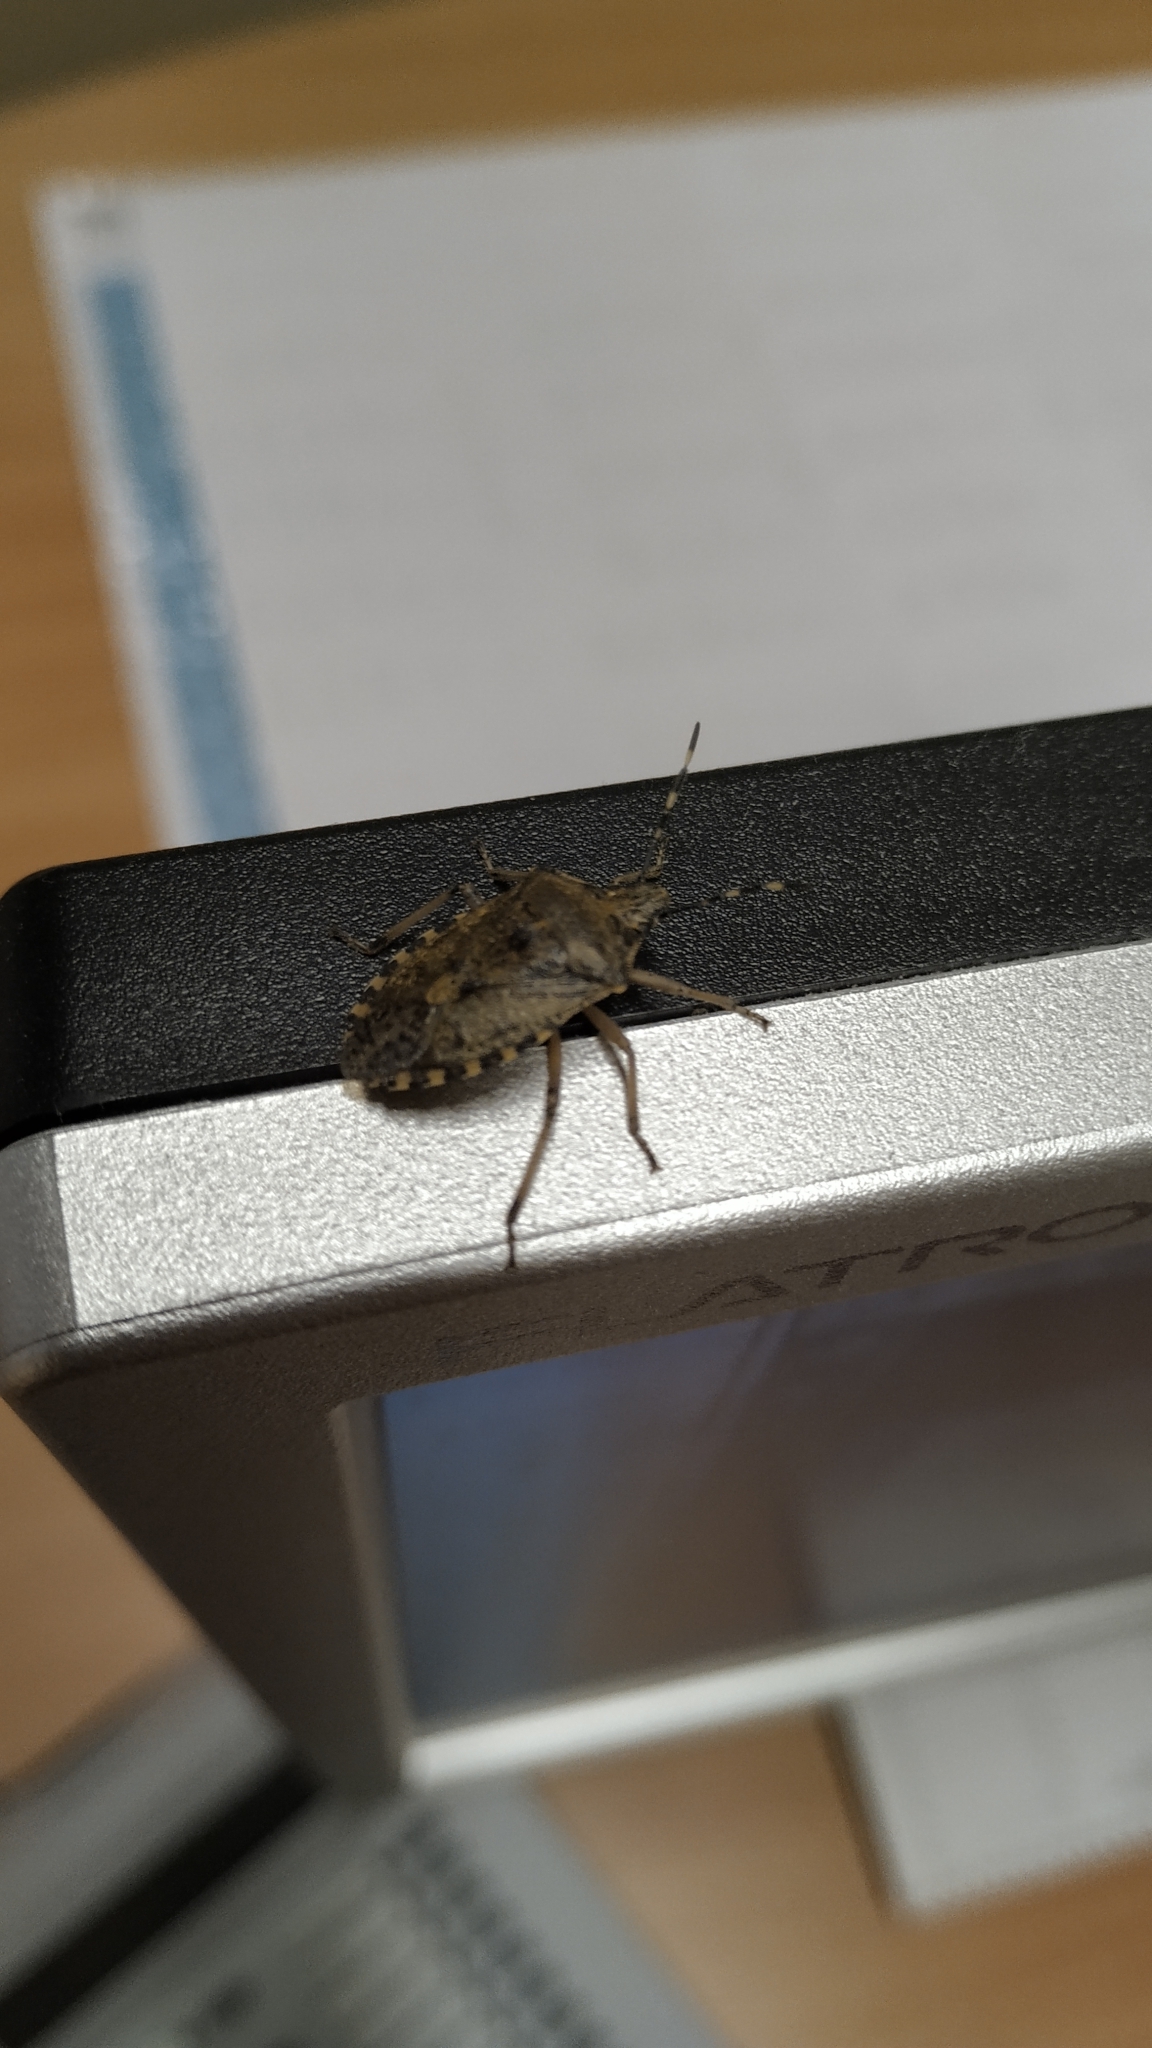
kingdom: Animalia
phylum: Arthropoda
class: Insecta
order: Hemiptera
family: Pentatomidae
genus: Rhaphigaster
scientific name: Rhaphigaster nebulosa
